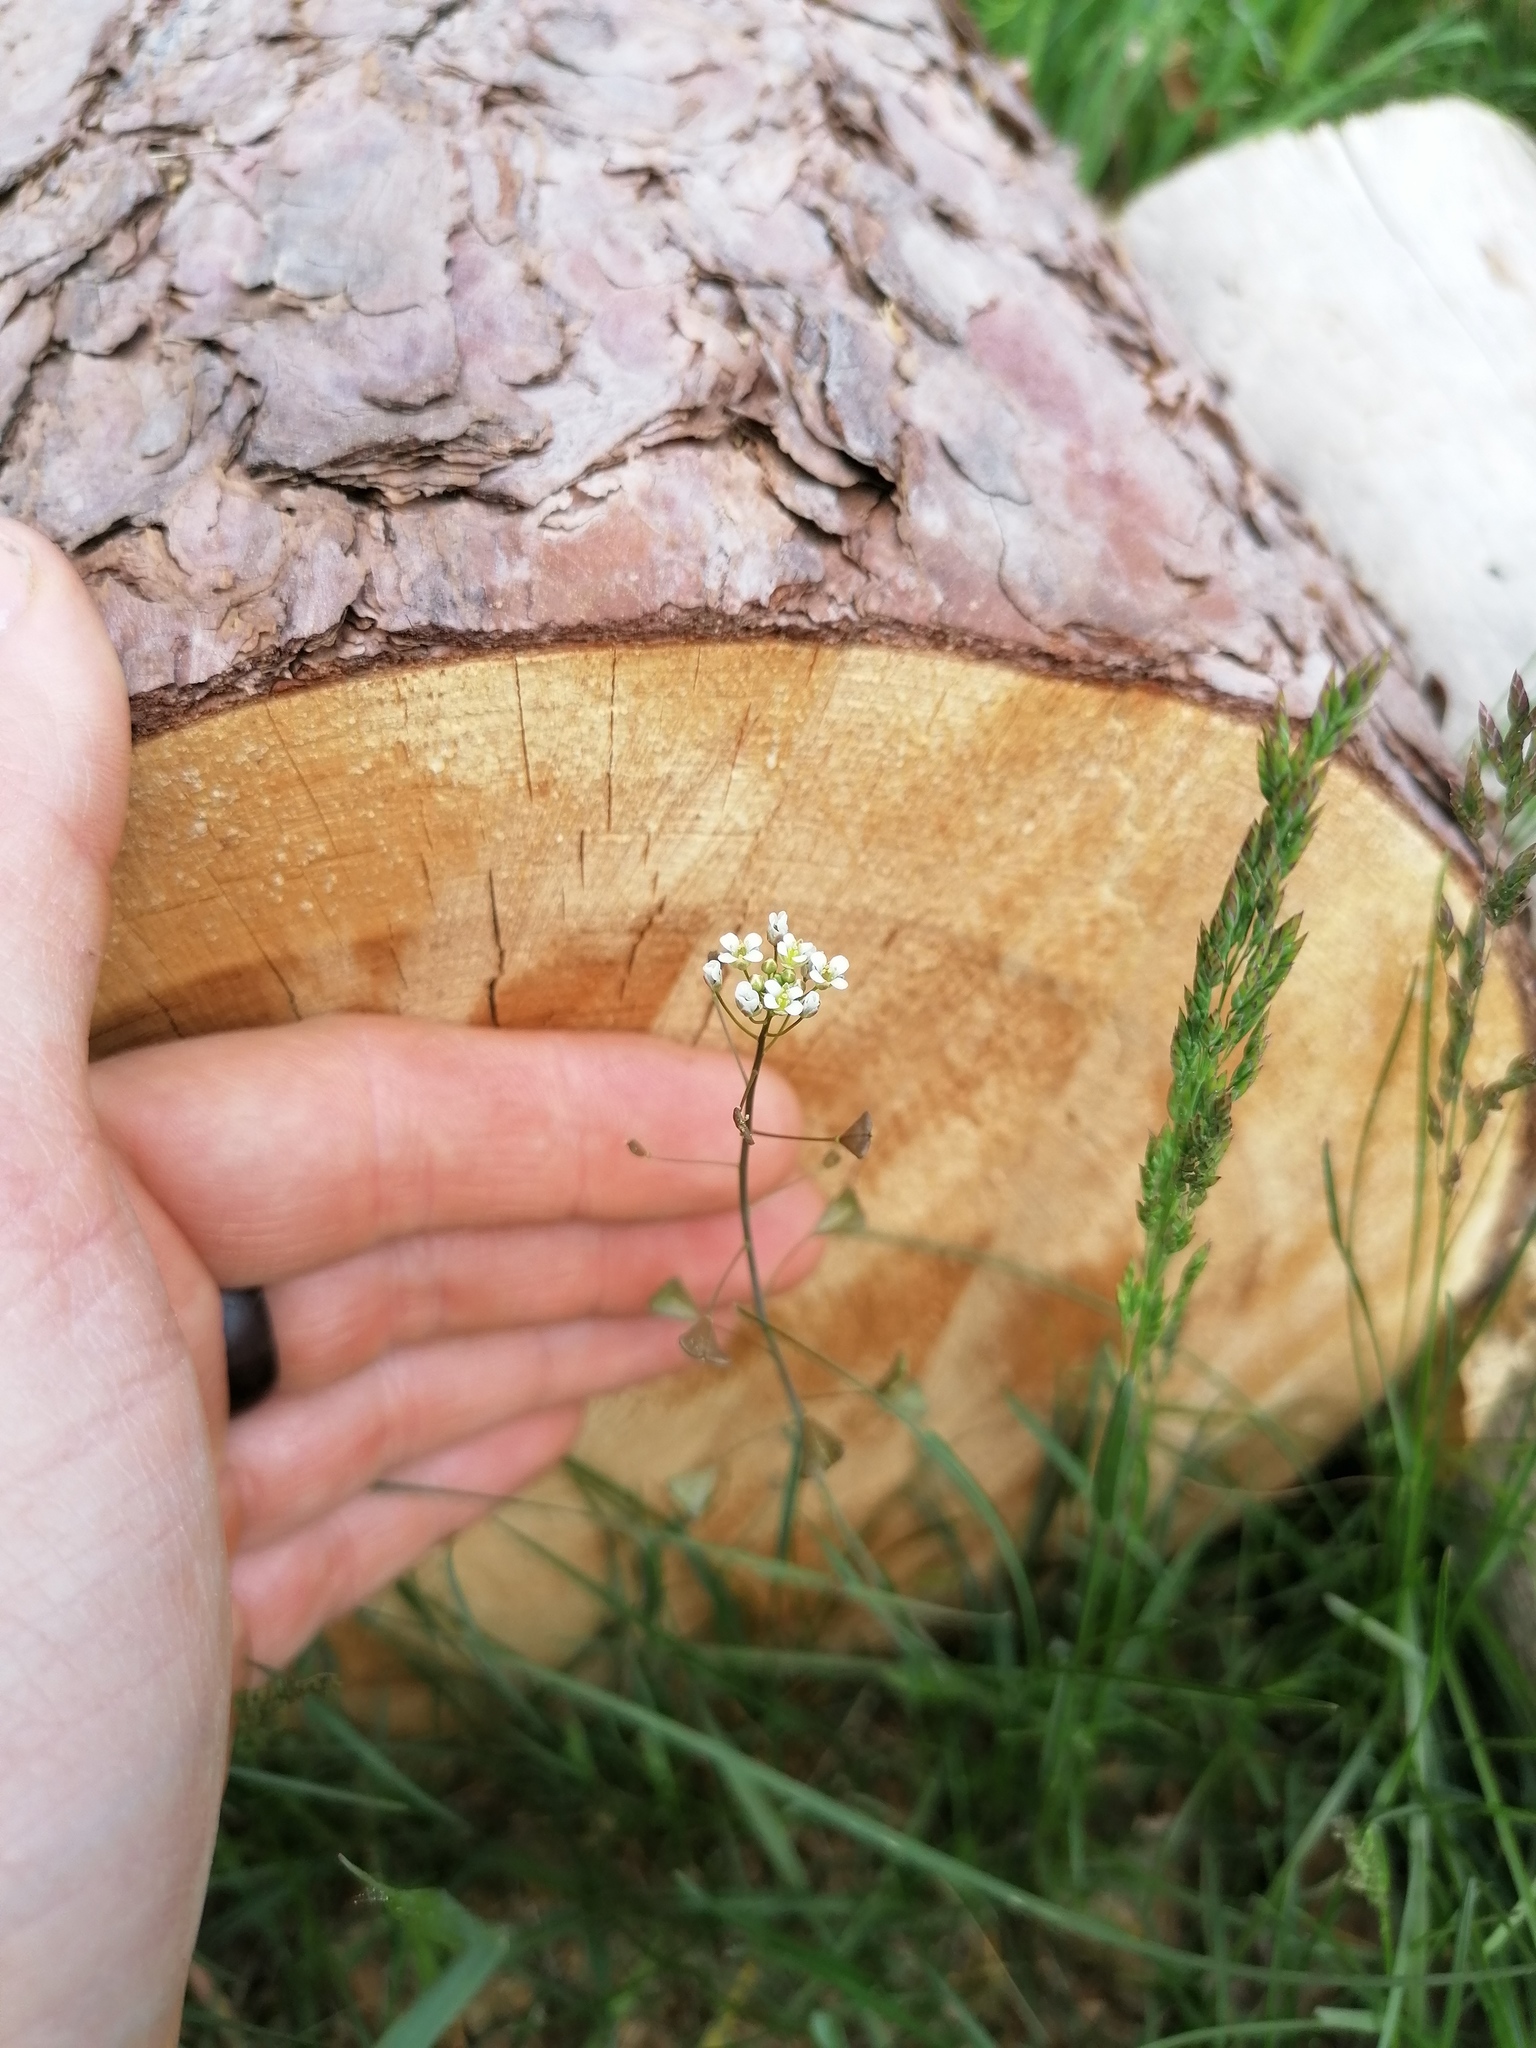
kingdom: Plantae
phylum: Tracheophyta
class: Magnoliopsida
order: Brassicales
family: Brassicaceae
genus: Capsella
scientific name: Capsella bursa-pastoris
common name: Shepherd's purse
